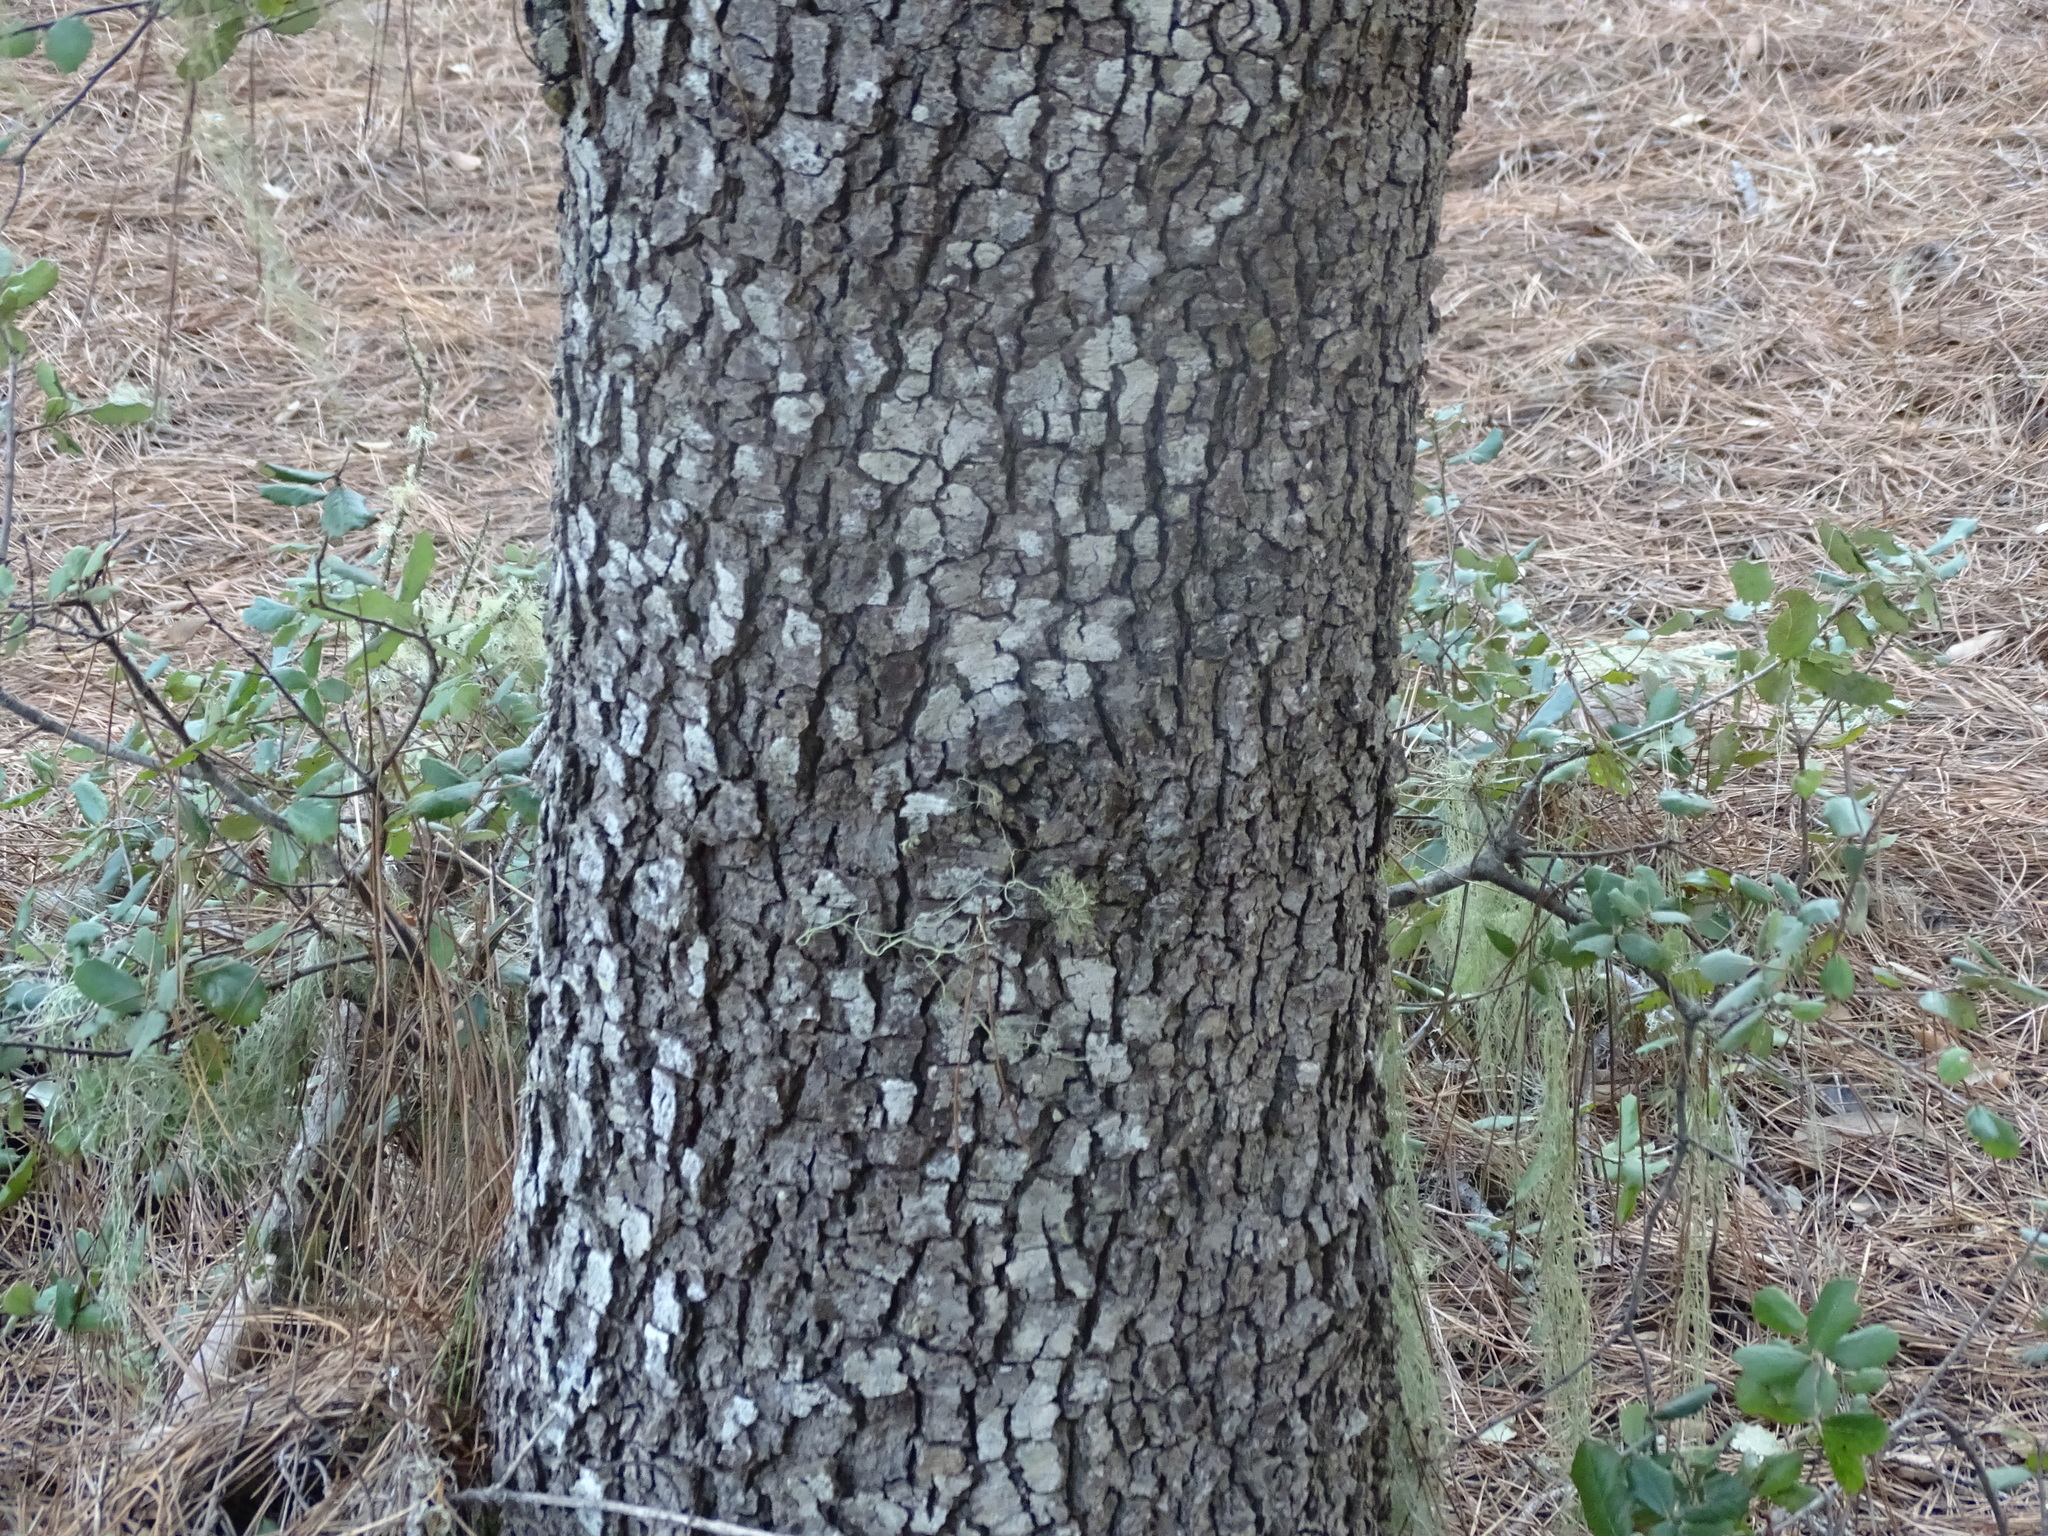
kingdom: Plantae
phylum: Tracheophyta
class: Magnoliopsida
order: Fagales
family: Fagaceae
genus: Quercus
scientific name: Quercus ilex
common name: Evergreen oak
